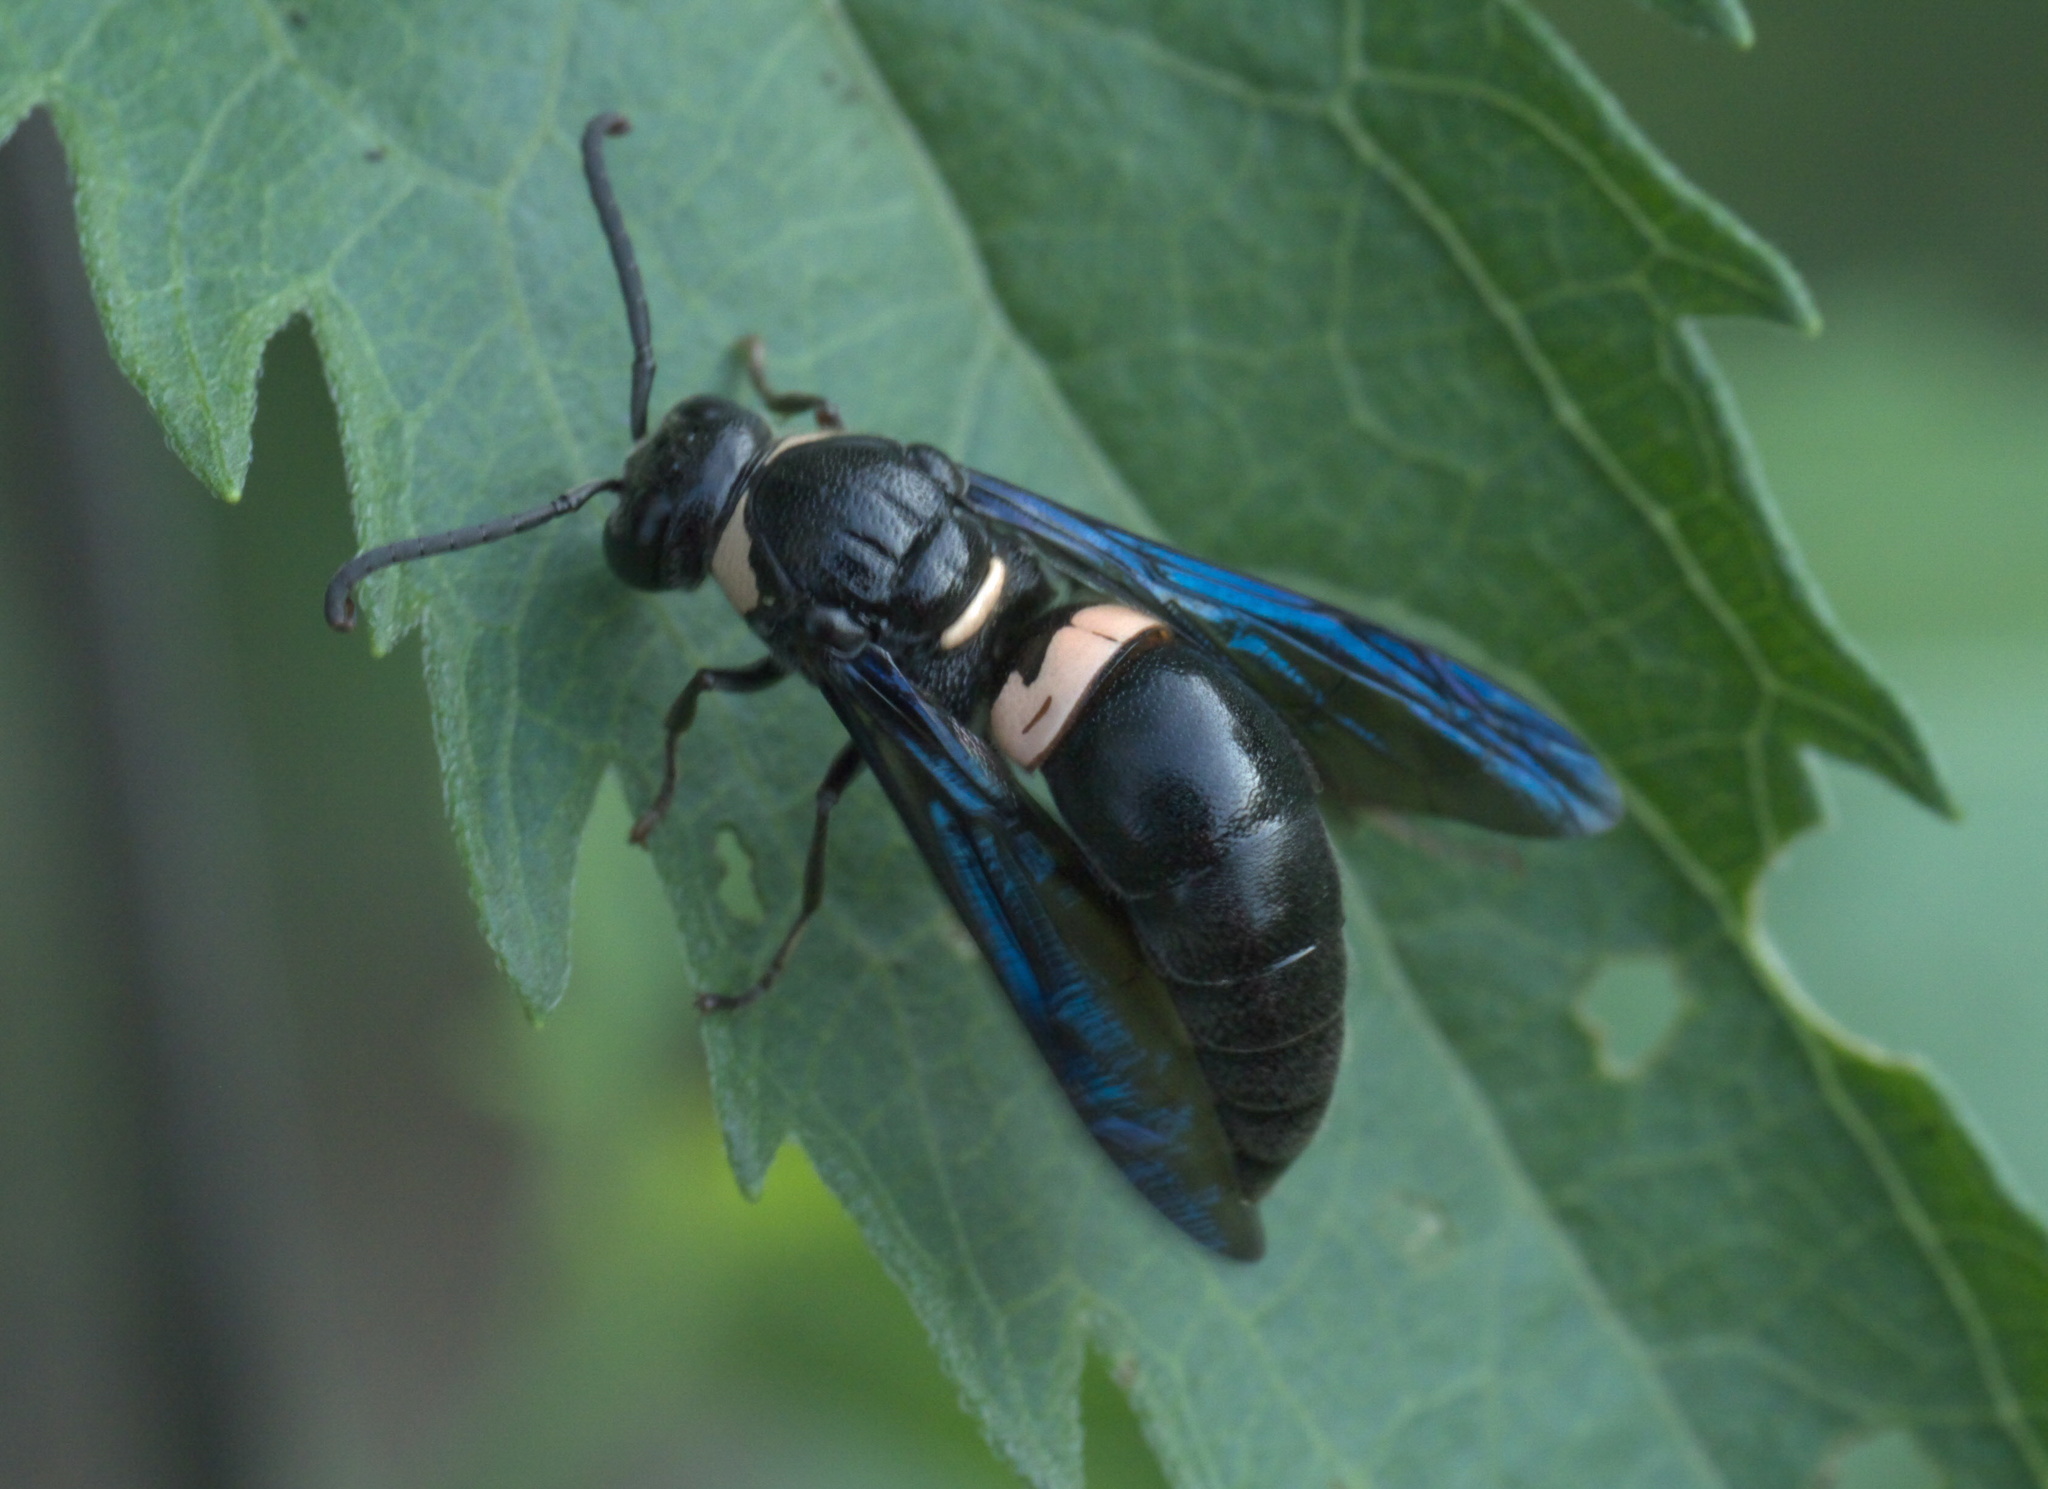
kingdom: Animalia
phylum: Arthropoda
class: Insecta
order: Hymenoptera
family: Eumenidae
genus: Monobia
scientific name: Monobia quadridens
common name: Four-toothed mason wasp
